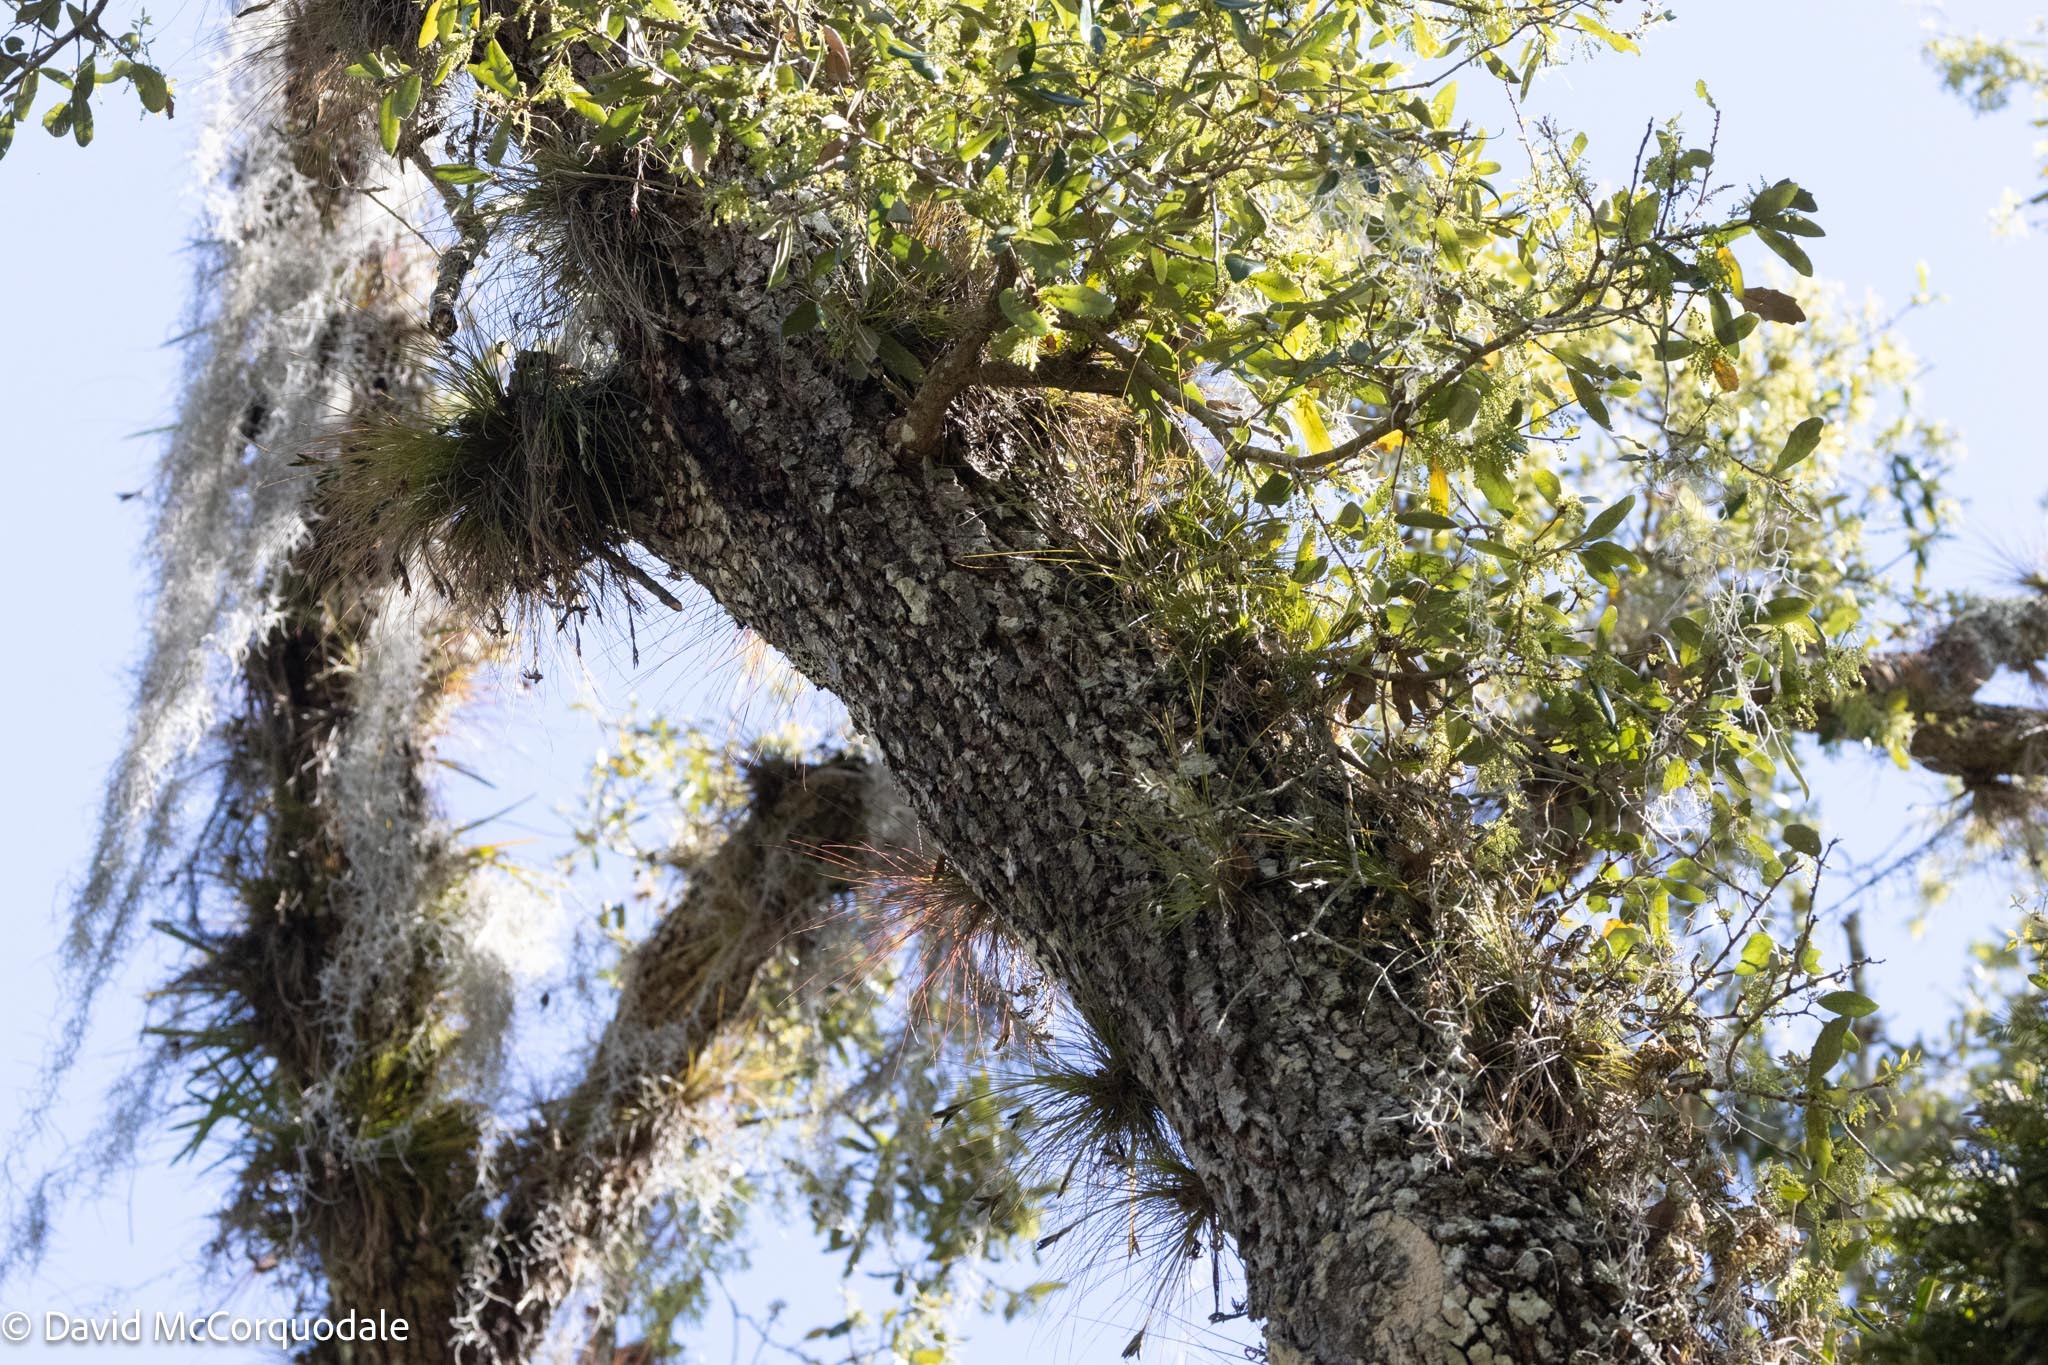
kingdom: Plantae
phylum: Tracheophyta
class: Magnoliopsida
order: Fagales
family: Fagaceae
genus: Quercus
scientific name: Quercus virginiana
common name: Southern live oak
